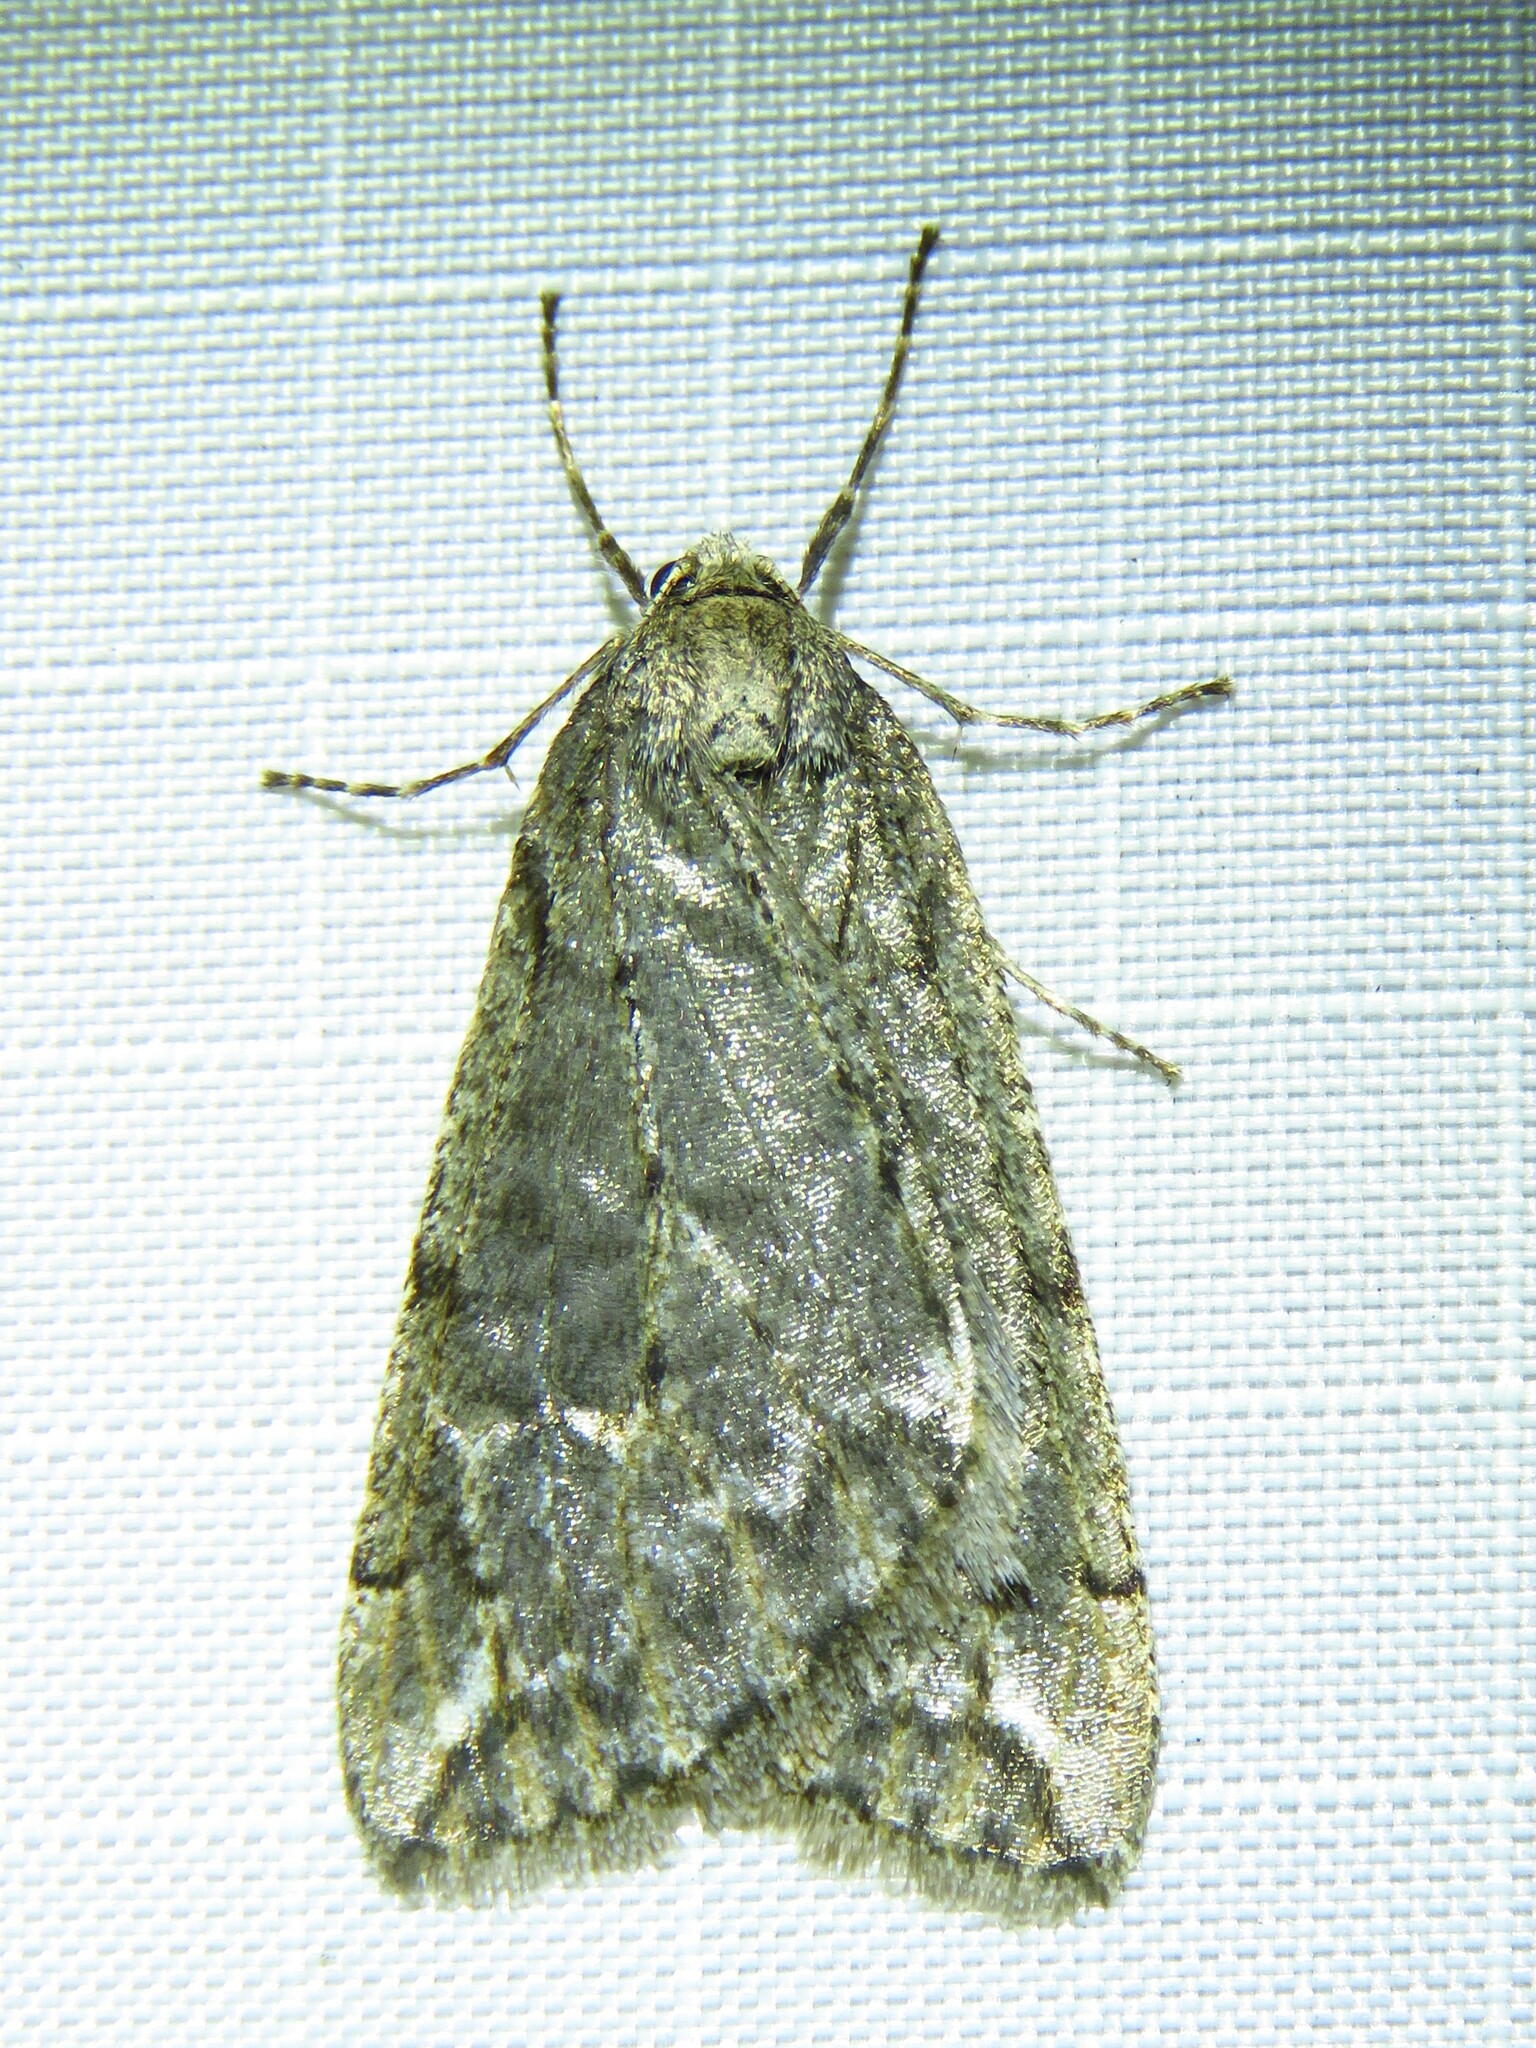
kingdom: Animalia
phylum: Arthropoda
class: Insecta
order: Lepidoptera
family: Geometridae
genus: Paleacrita
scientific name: Paleacrita vernata
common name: Spring cankerworm
